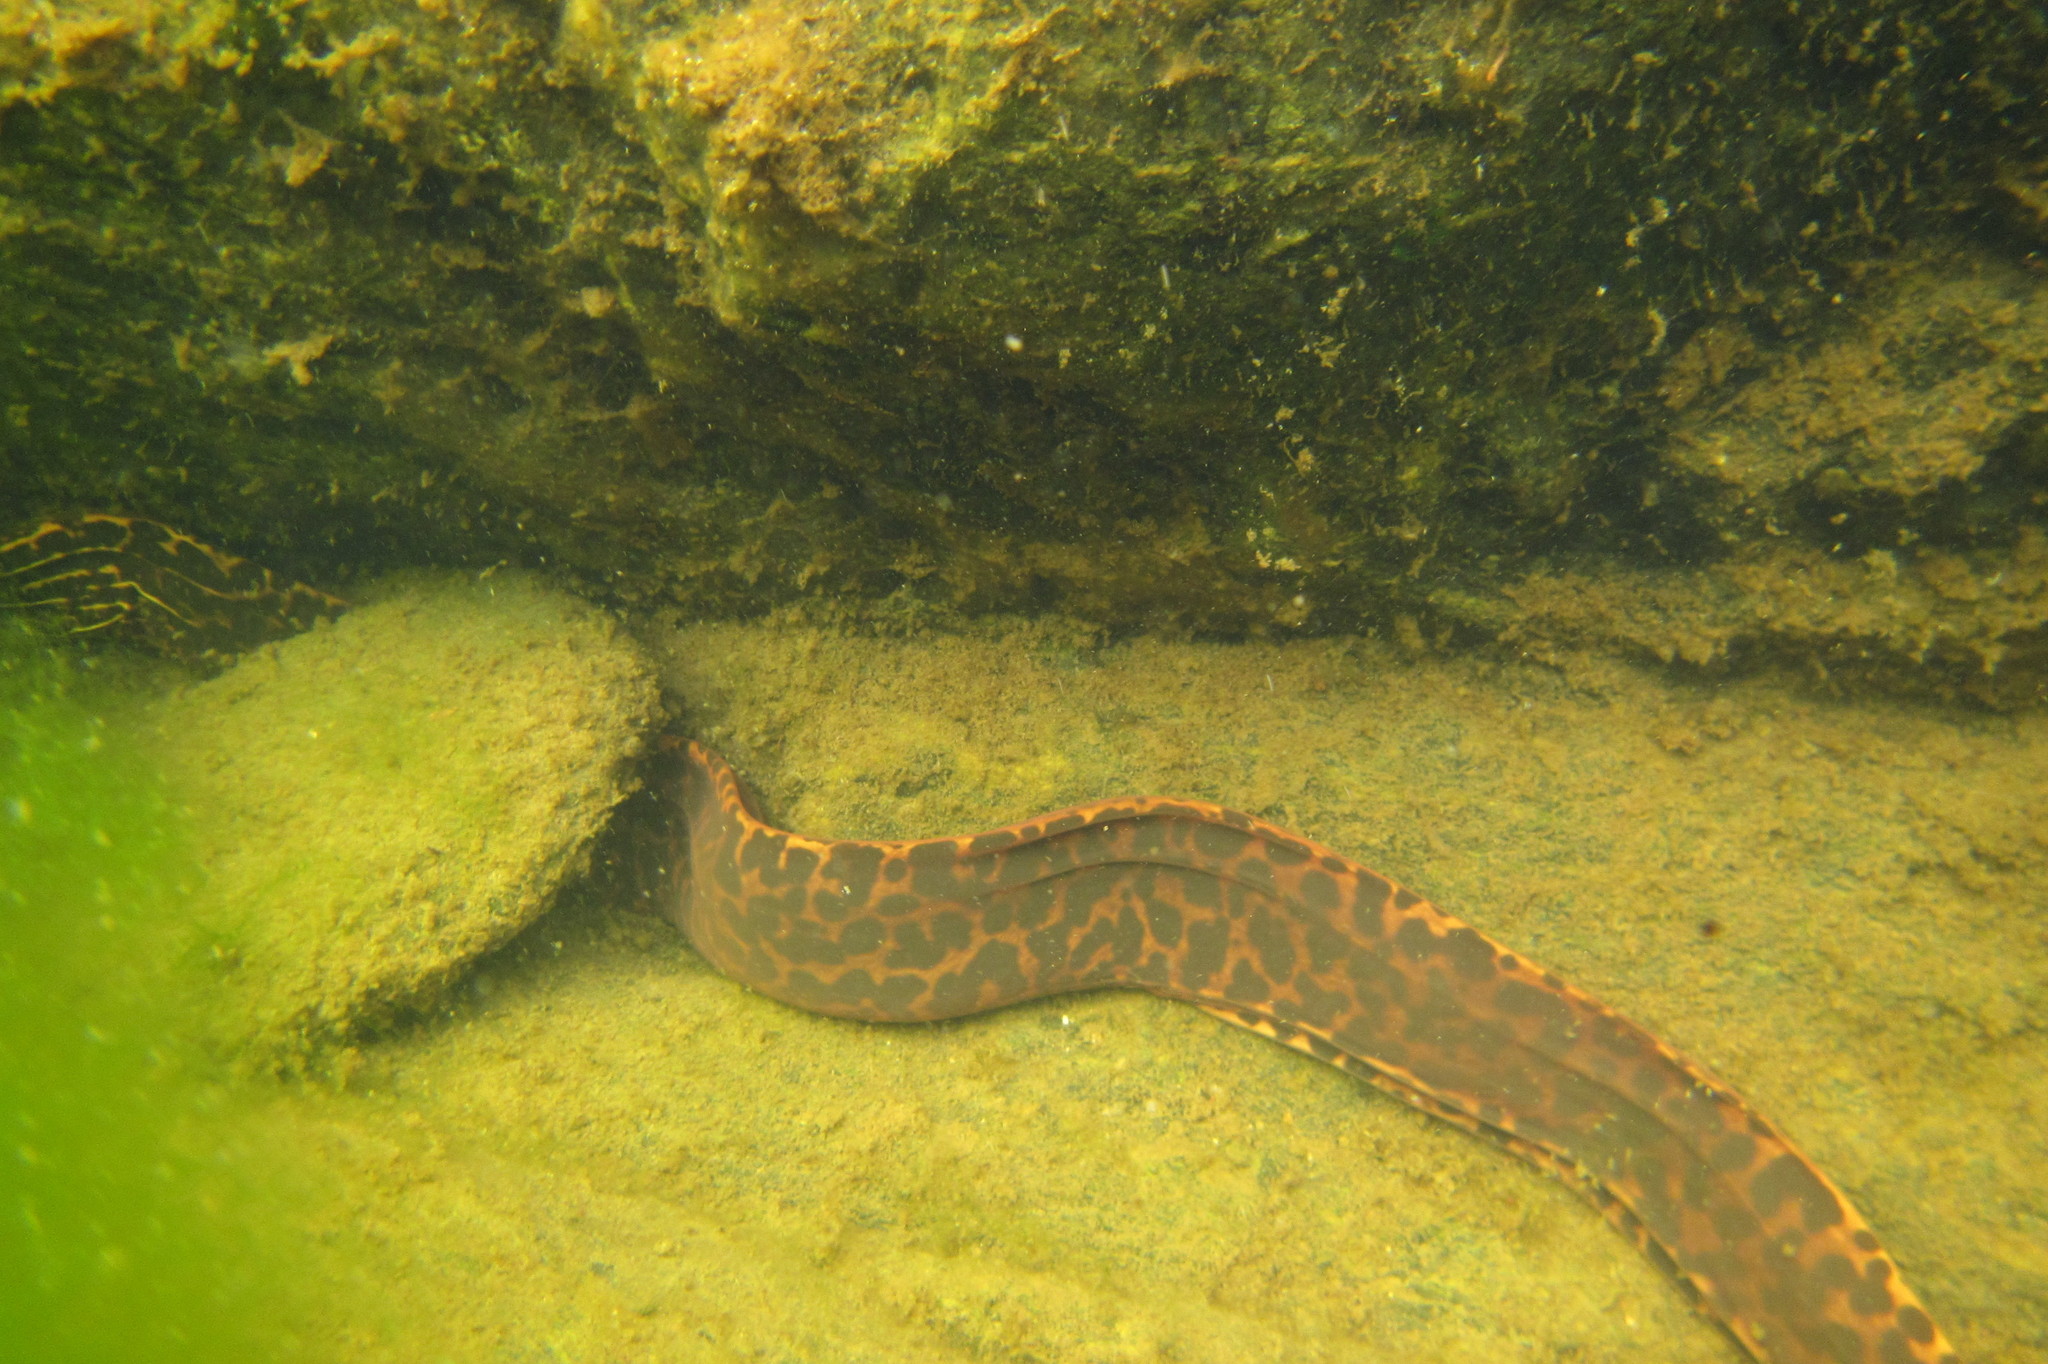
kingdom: Animalia
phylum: Chordata
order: Anguilliformes
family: Muraenidae
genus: Gymnothorax
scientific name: Gymnothorax polyuranodon
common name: Freshwater moray
